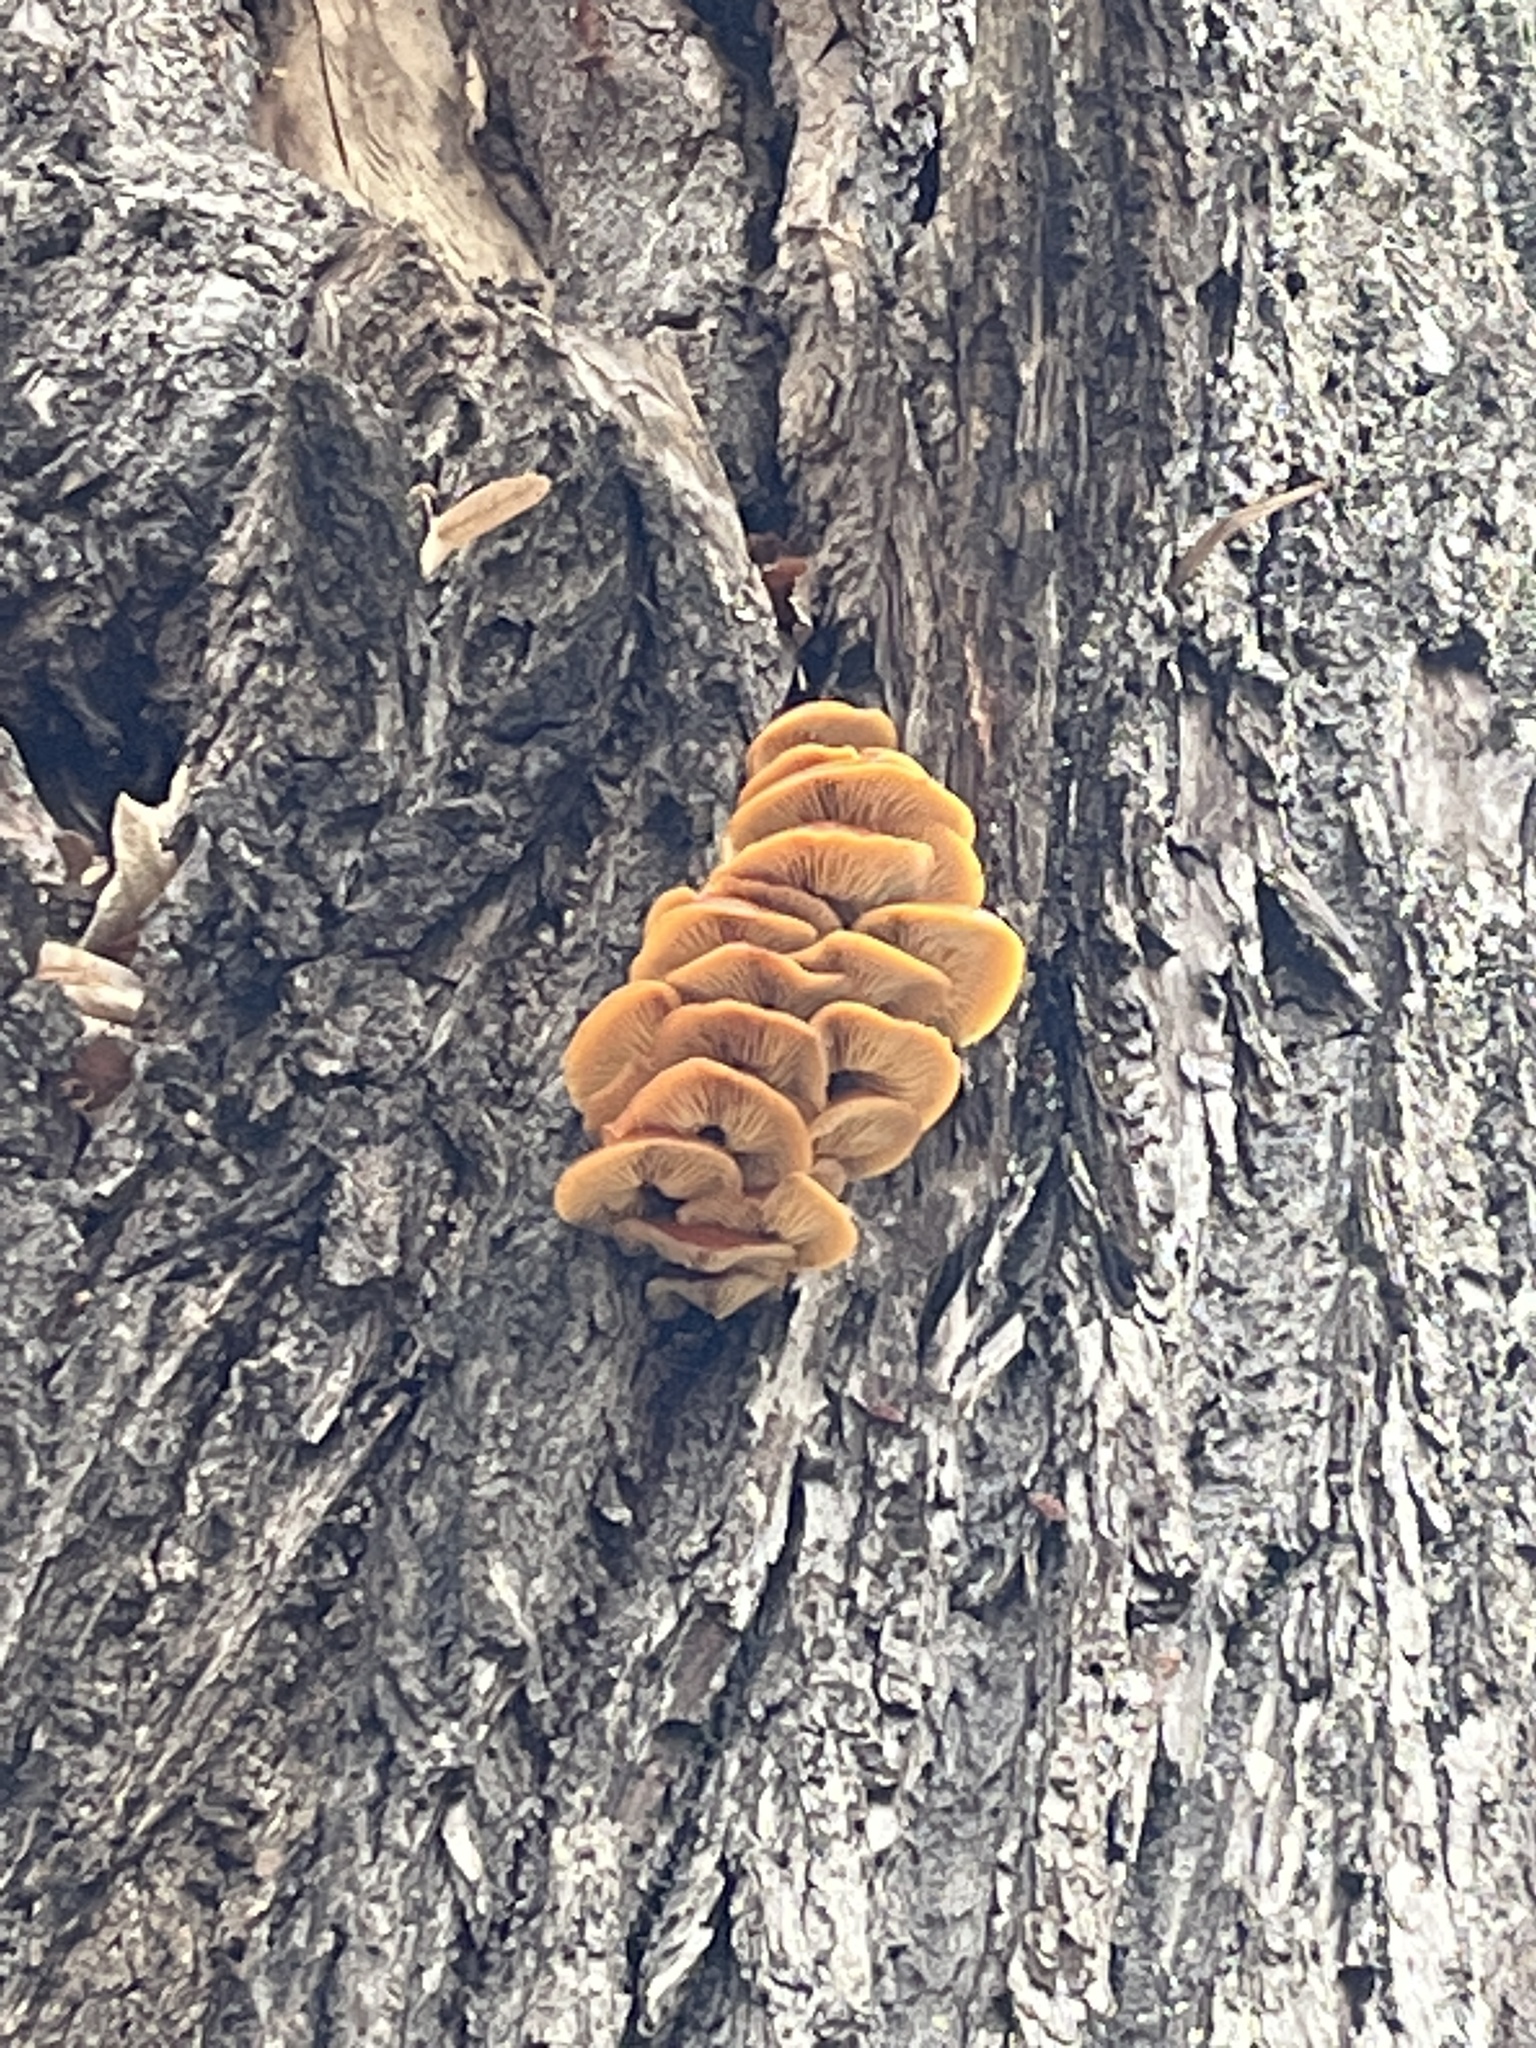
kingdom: Fungi
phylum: Basidiomycota
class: Agaricomycetes
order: Agaricales
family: Physalacriaceae
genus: Flammulina
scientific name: Flammulina
